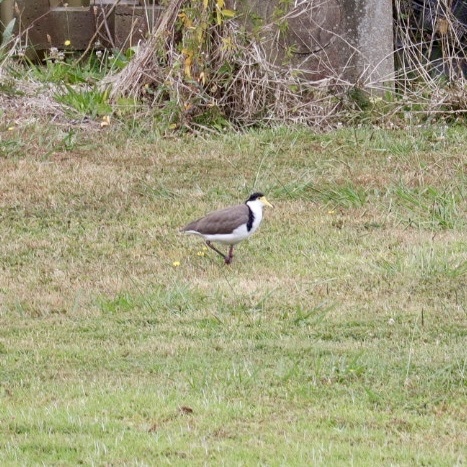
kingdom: Animalia
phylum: Chordata
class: Aves
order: Charadriiformes
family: Charadriidae
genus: Vanellus
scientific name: Vanellus miles
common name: Masked lapwing
